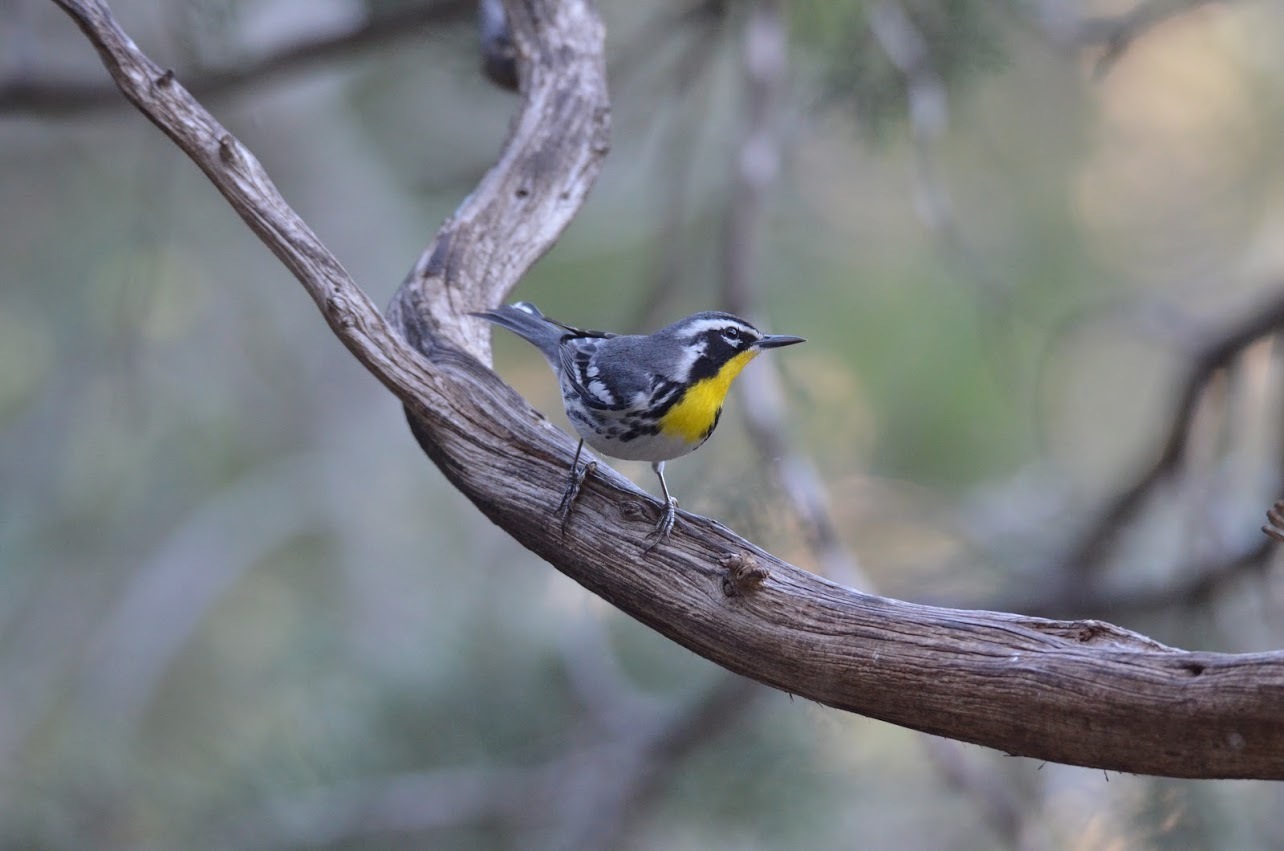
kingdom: Animalia
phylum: Chordata
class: Aves
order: Passeriformes
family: Parulidae
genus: Setophaga
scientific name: Setophaga dominica
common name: Yellow-throated warbler
